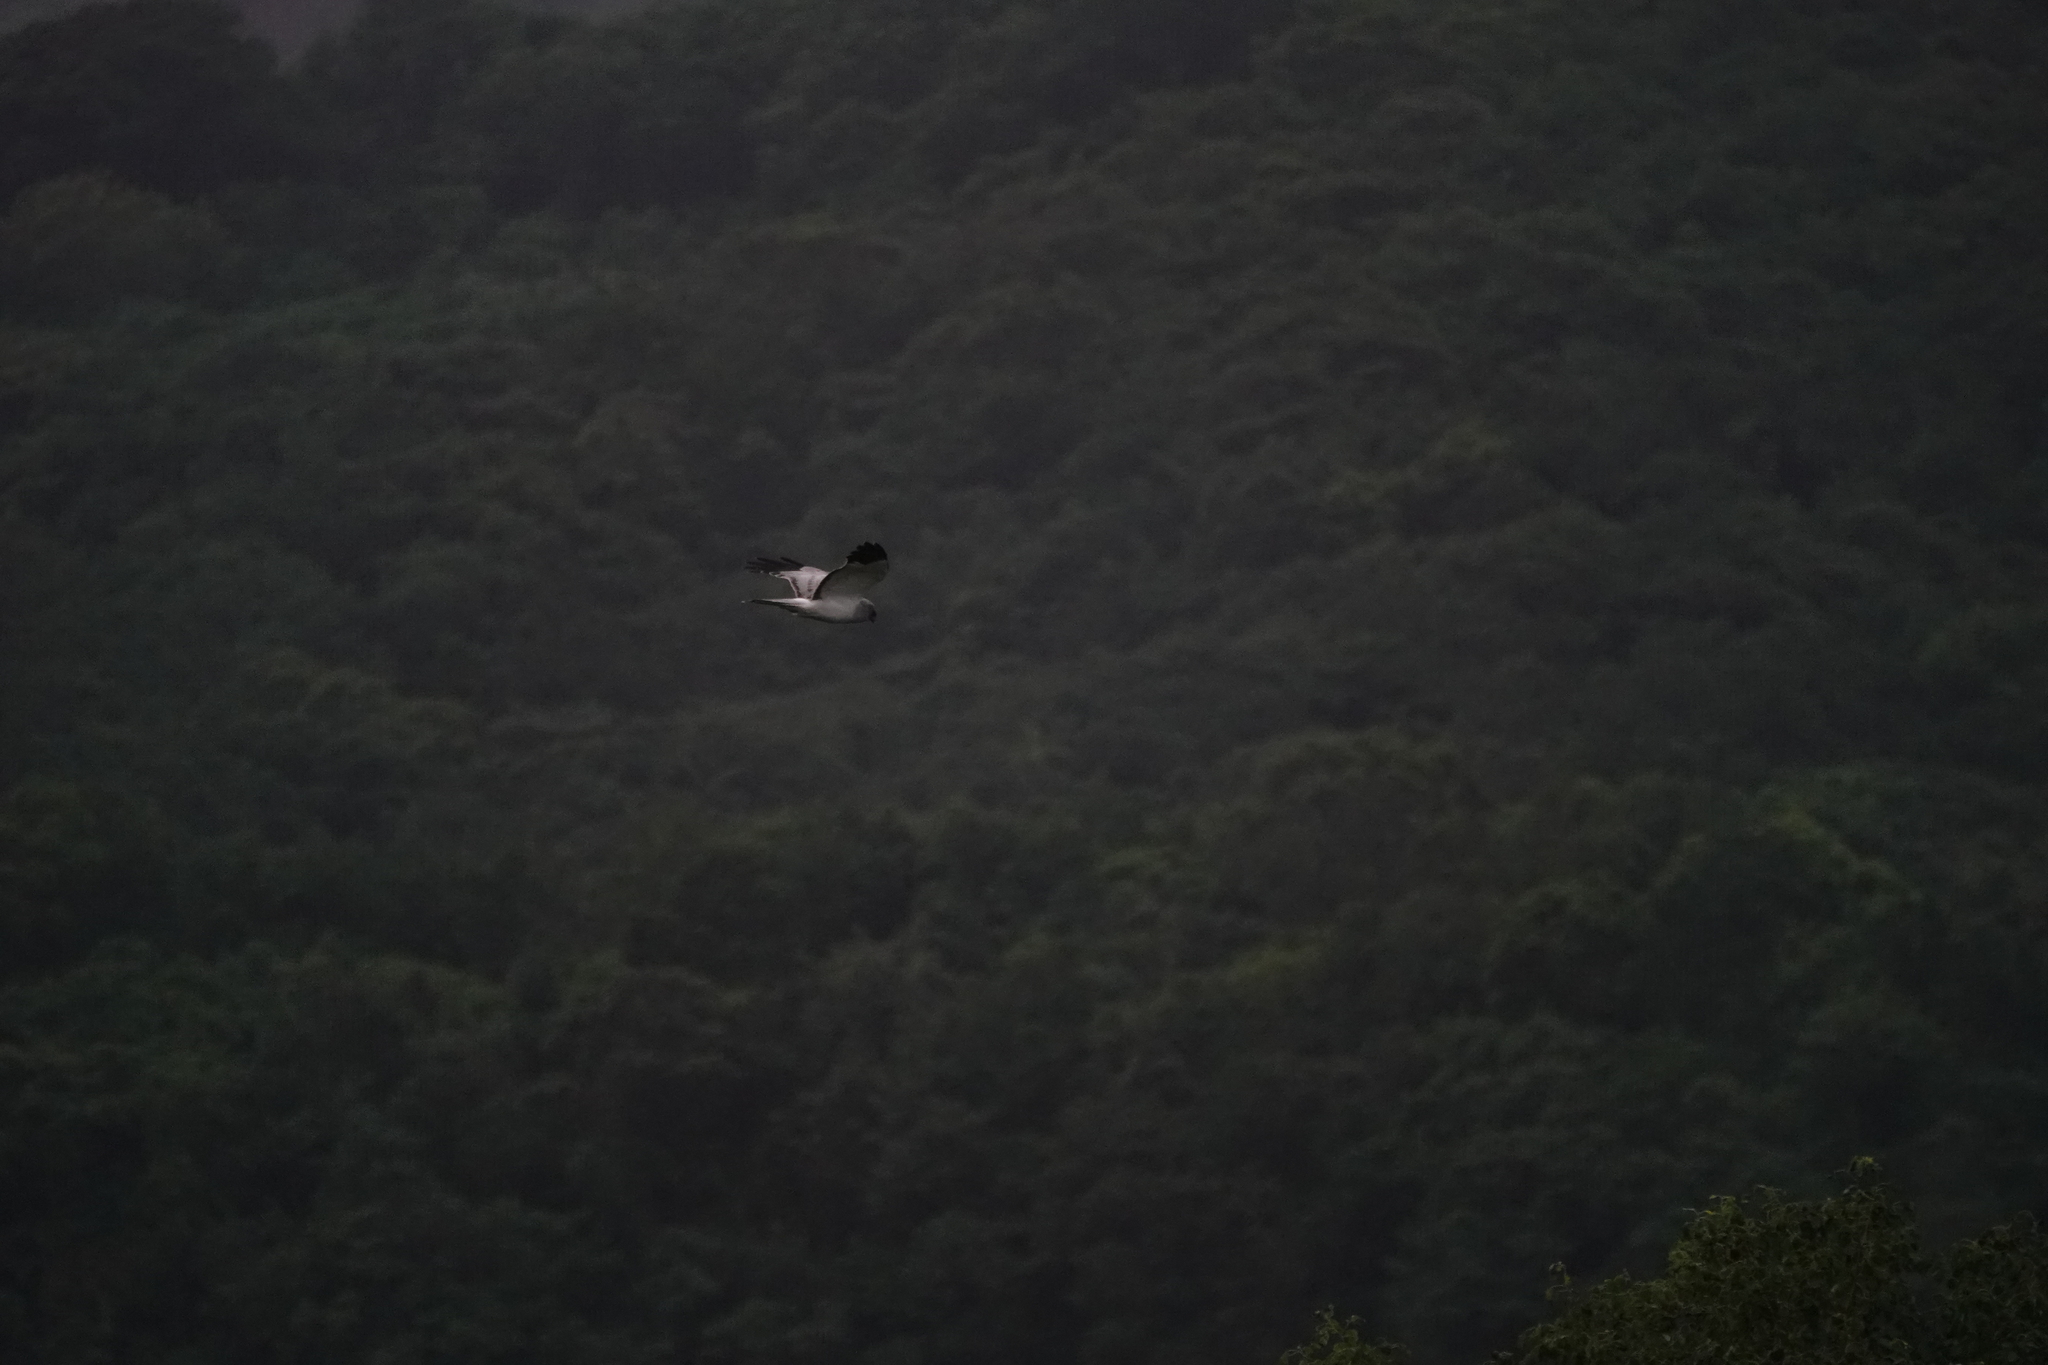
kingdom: Animalia
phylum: Chordata
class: Aves
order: Accipitriformes
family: Accipitridae
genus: Circus
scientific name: Circus cyaneus
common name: Hen harrier
